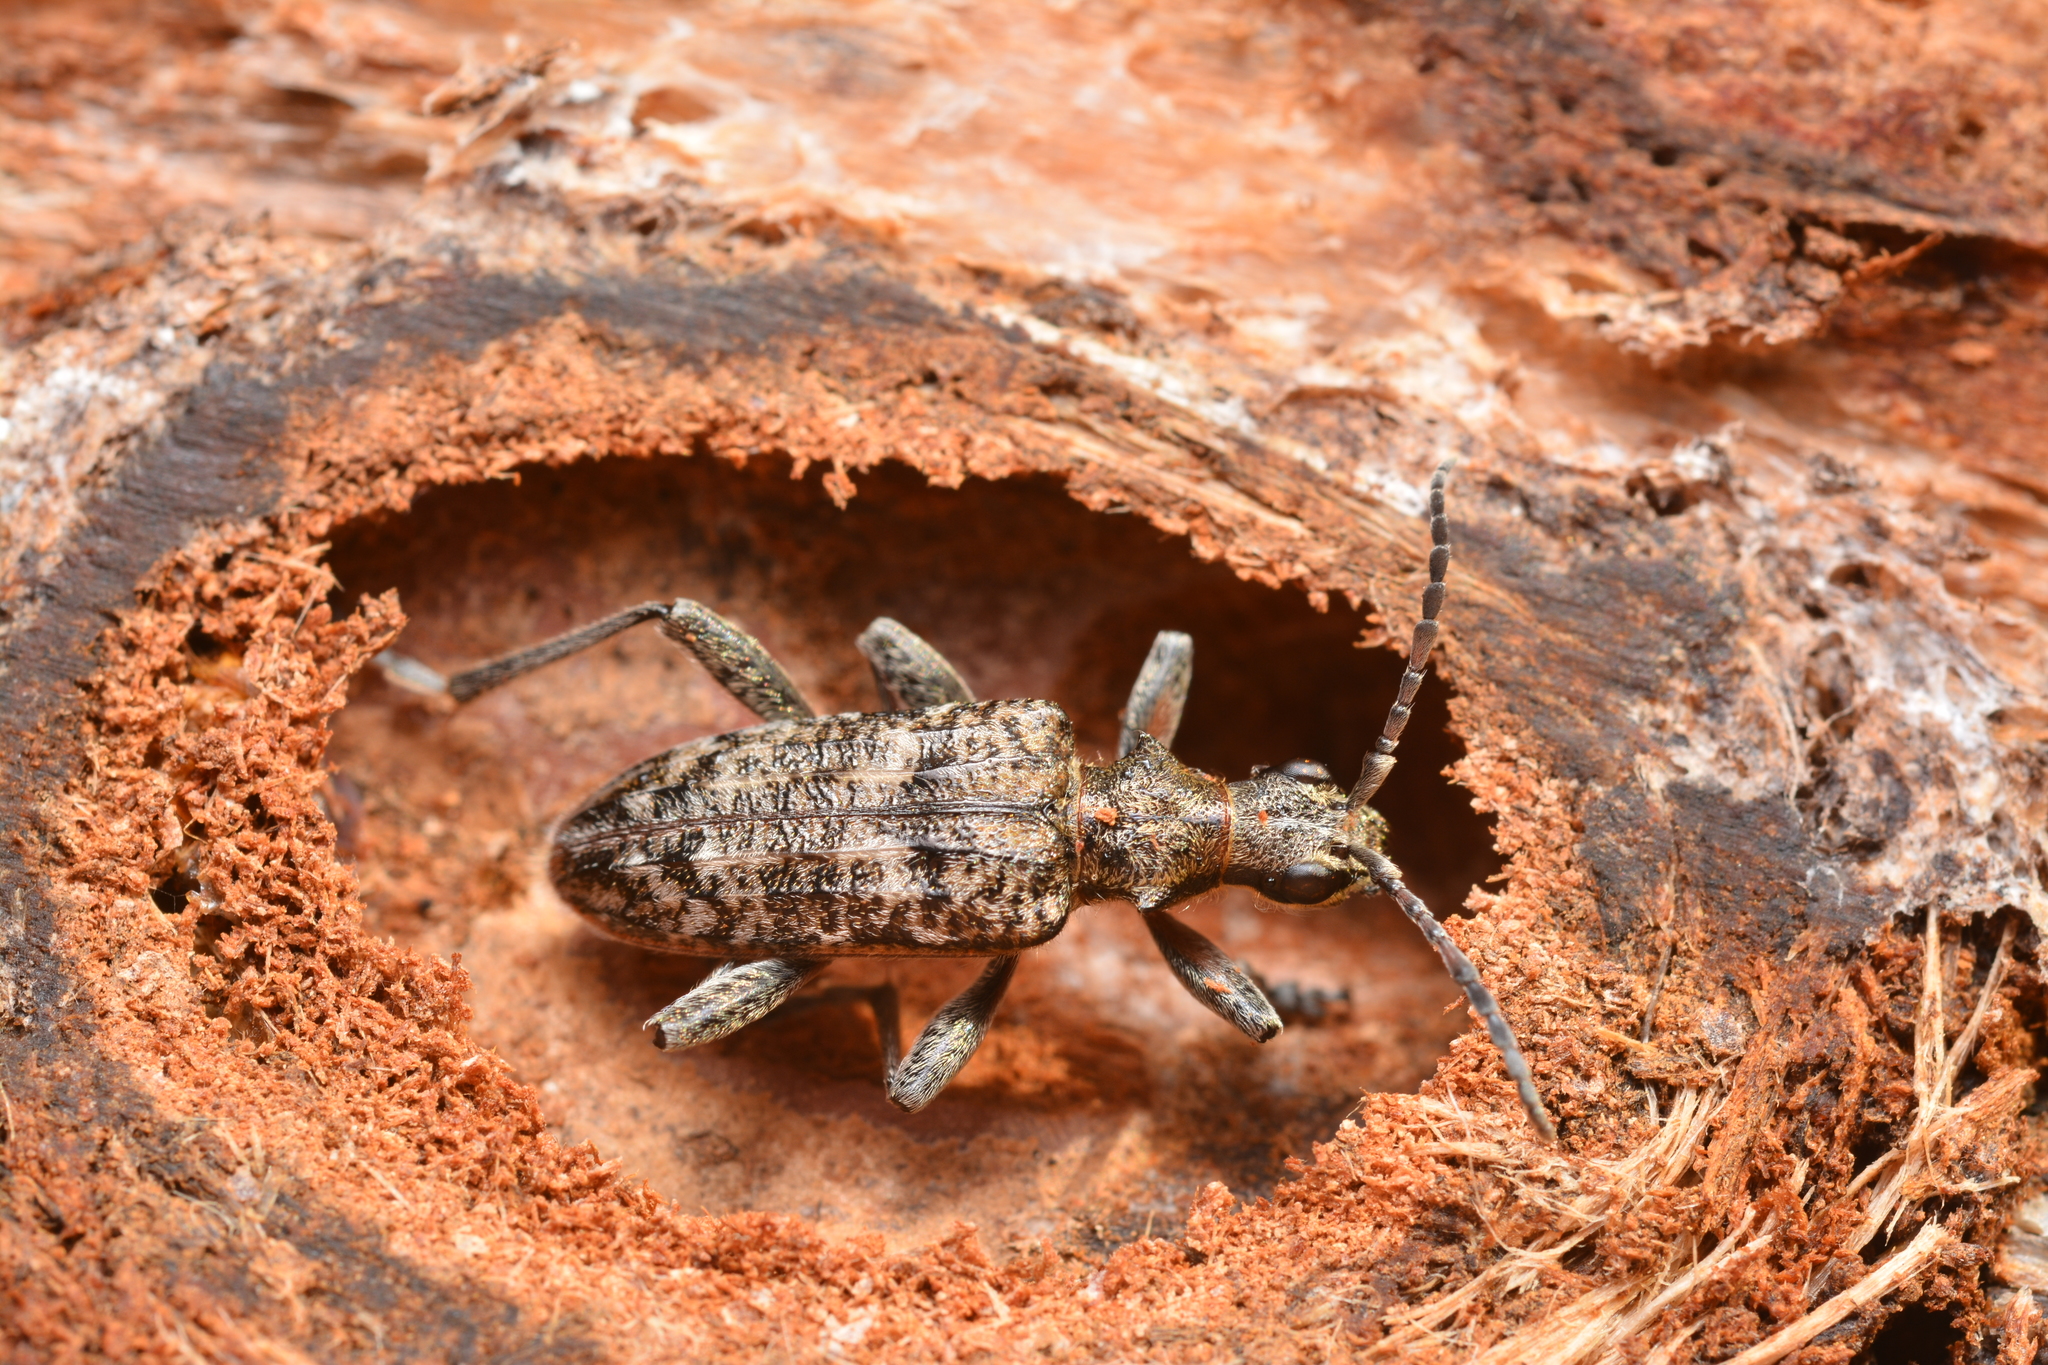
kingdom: Animalia
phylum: Arthropoda
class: Insecta
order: Coleoptera
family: Cerambycidae
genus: Rhagium
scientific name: Rhagium inquisitor
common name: Ribbed pine borer
